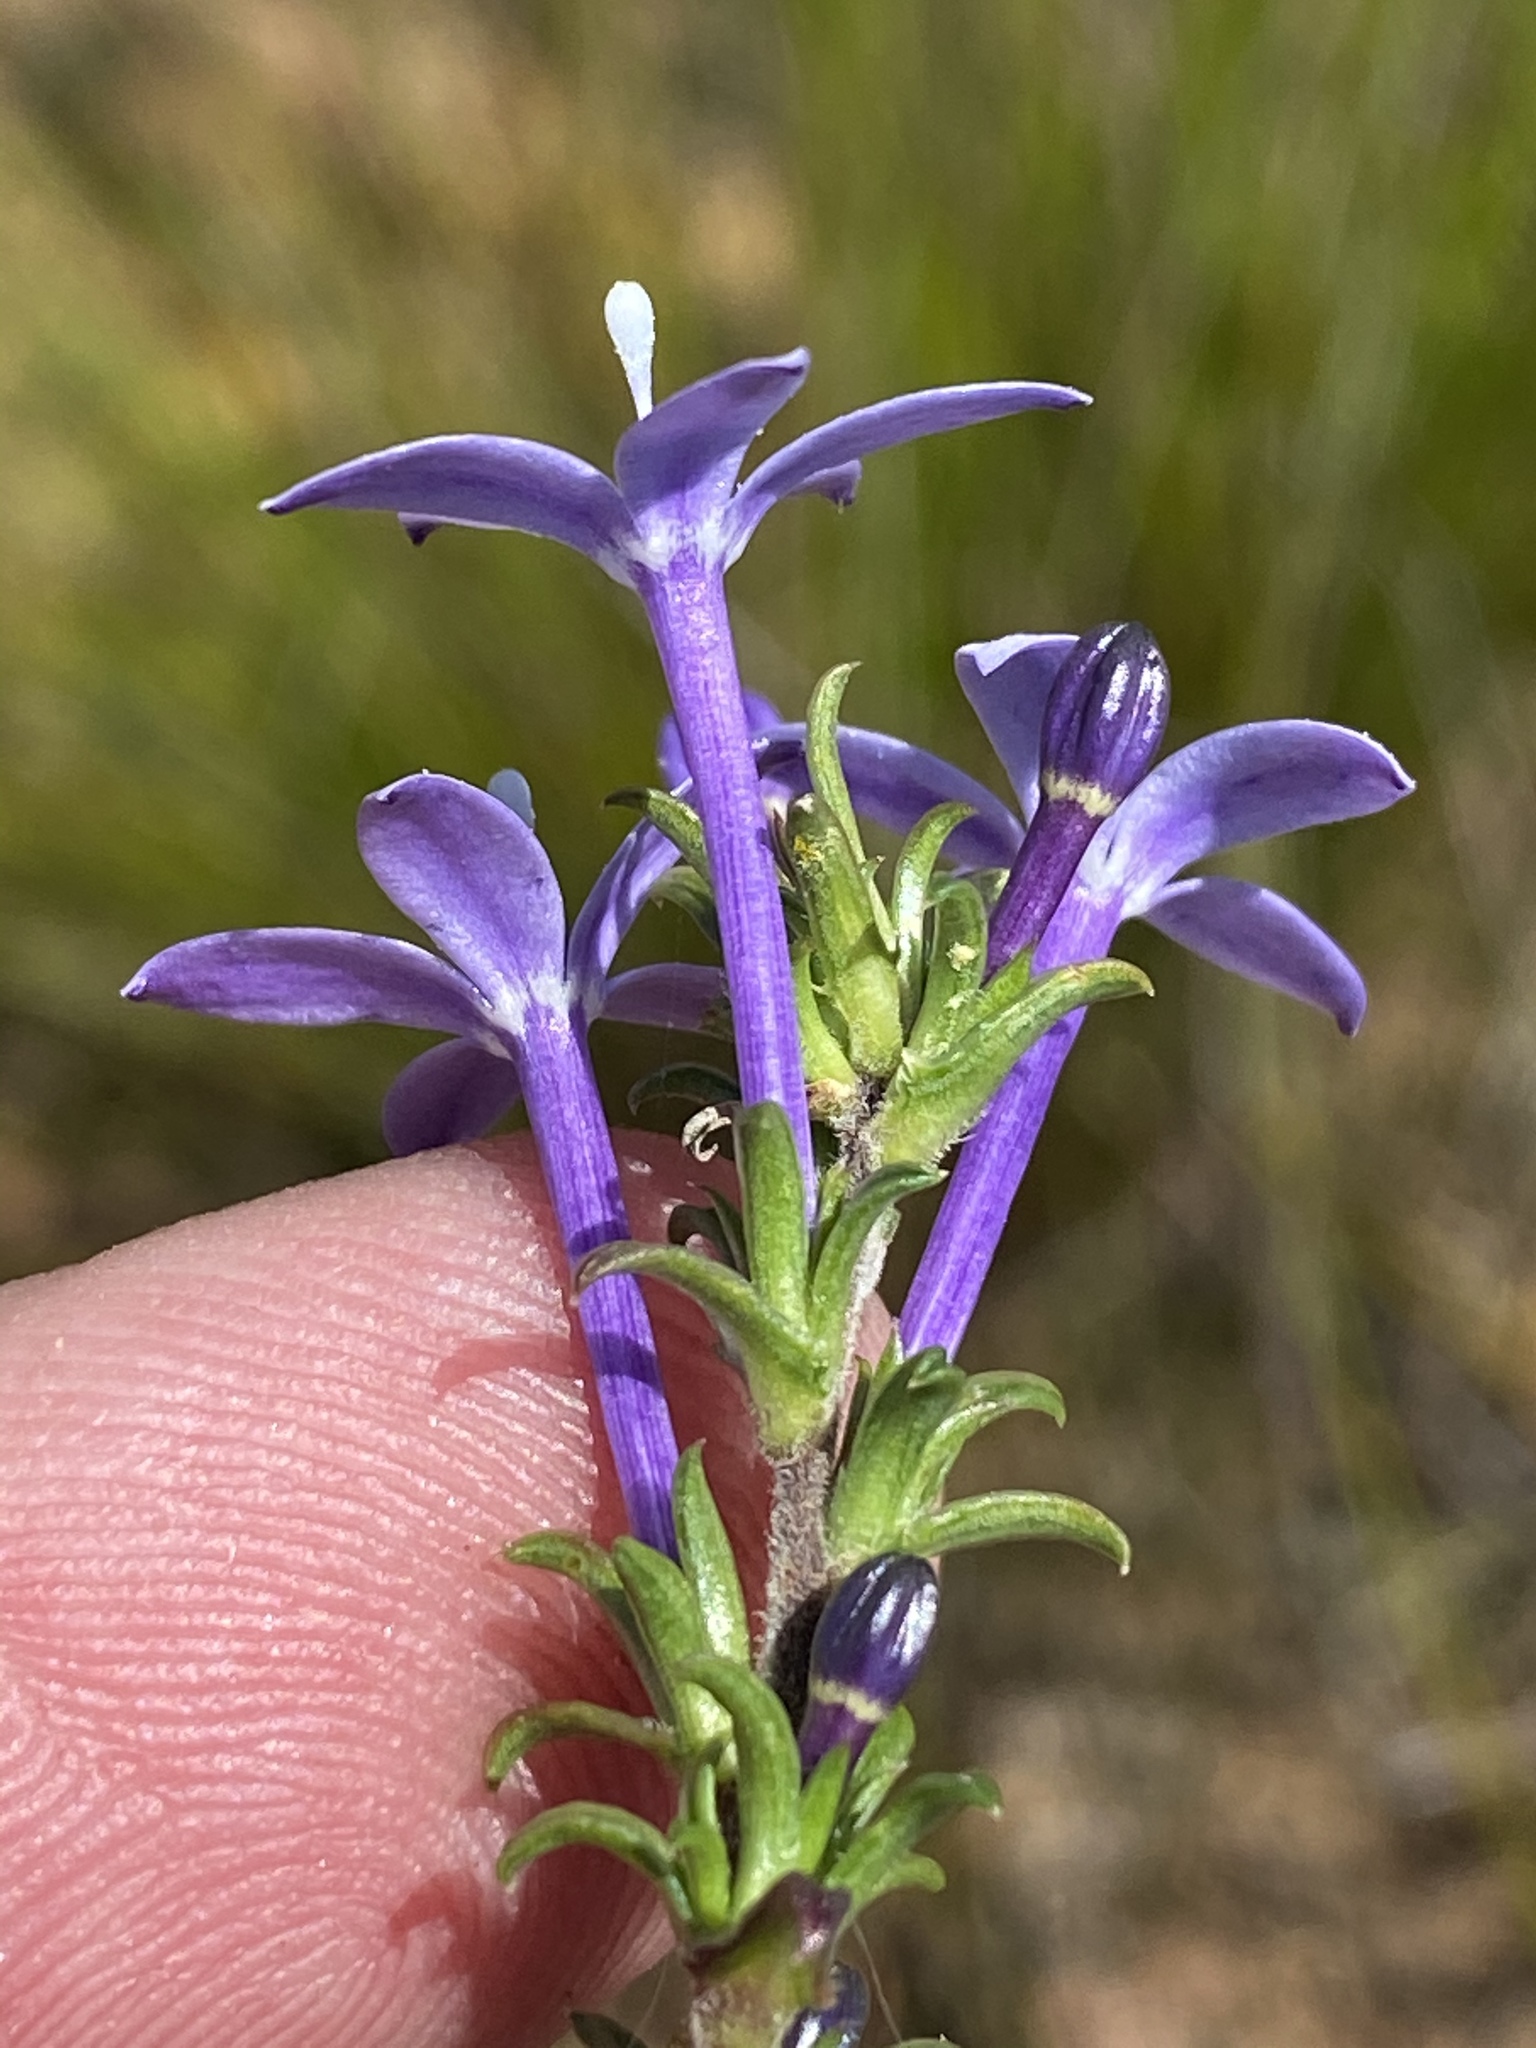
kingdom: Plantae
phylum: Tracheophyta
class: Magnoliopsida
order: Asterales
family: Campanulaceae
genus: Theilera
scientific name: Theilera guthriei
